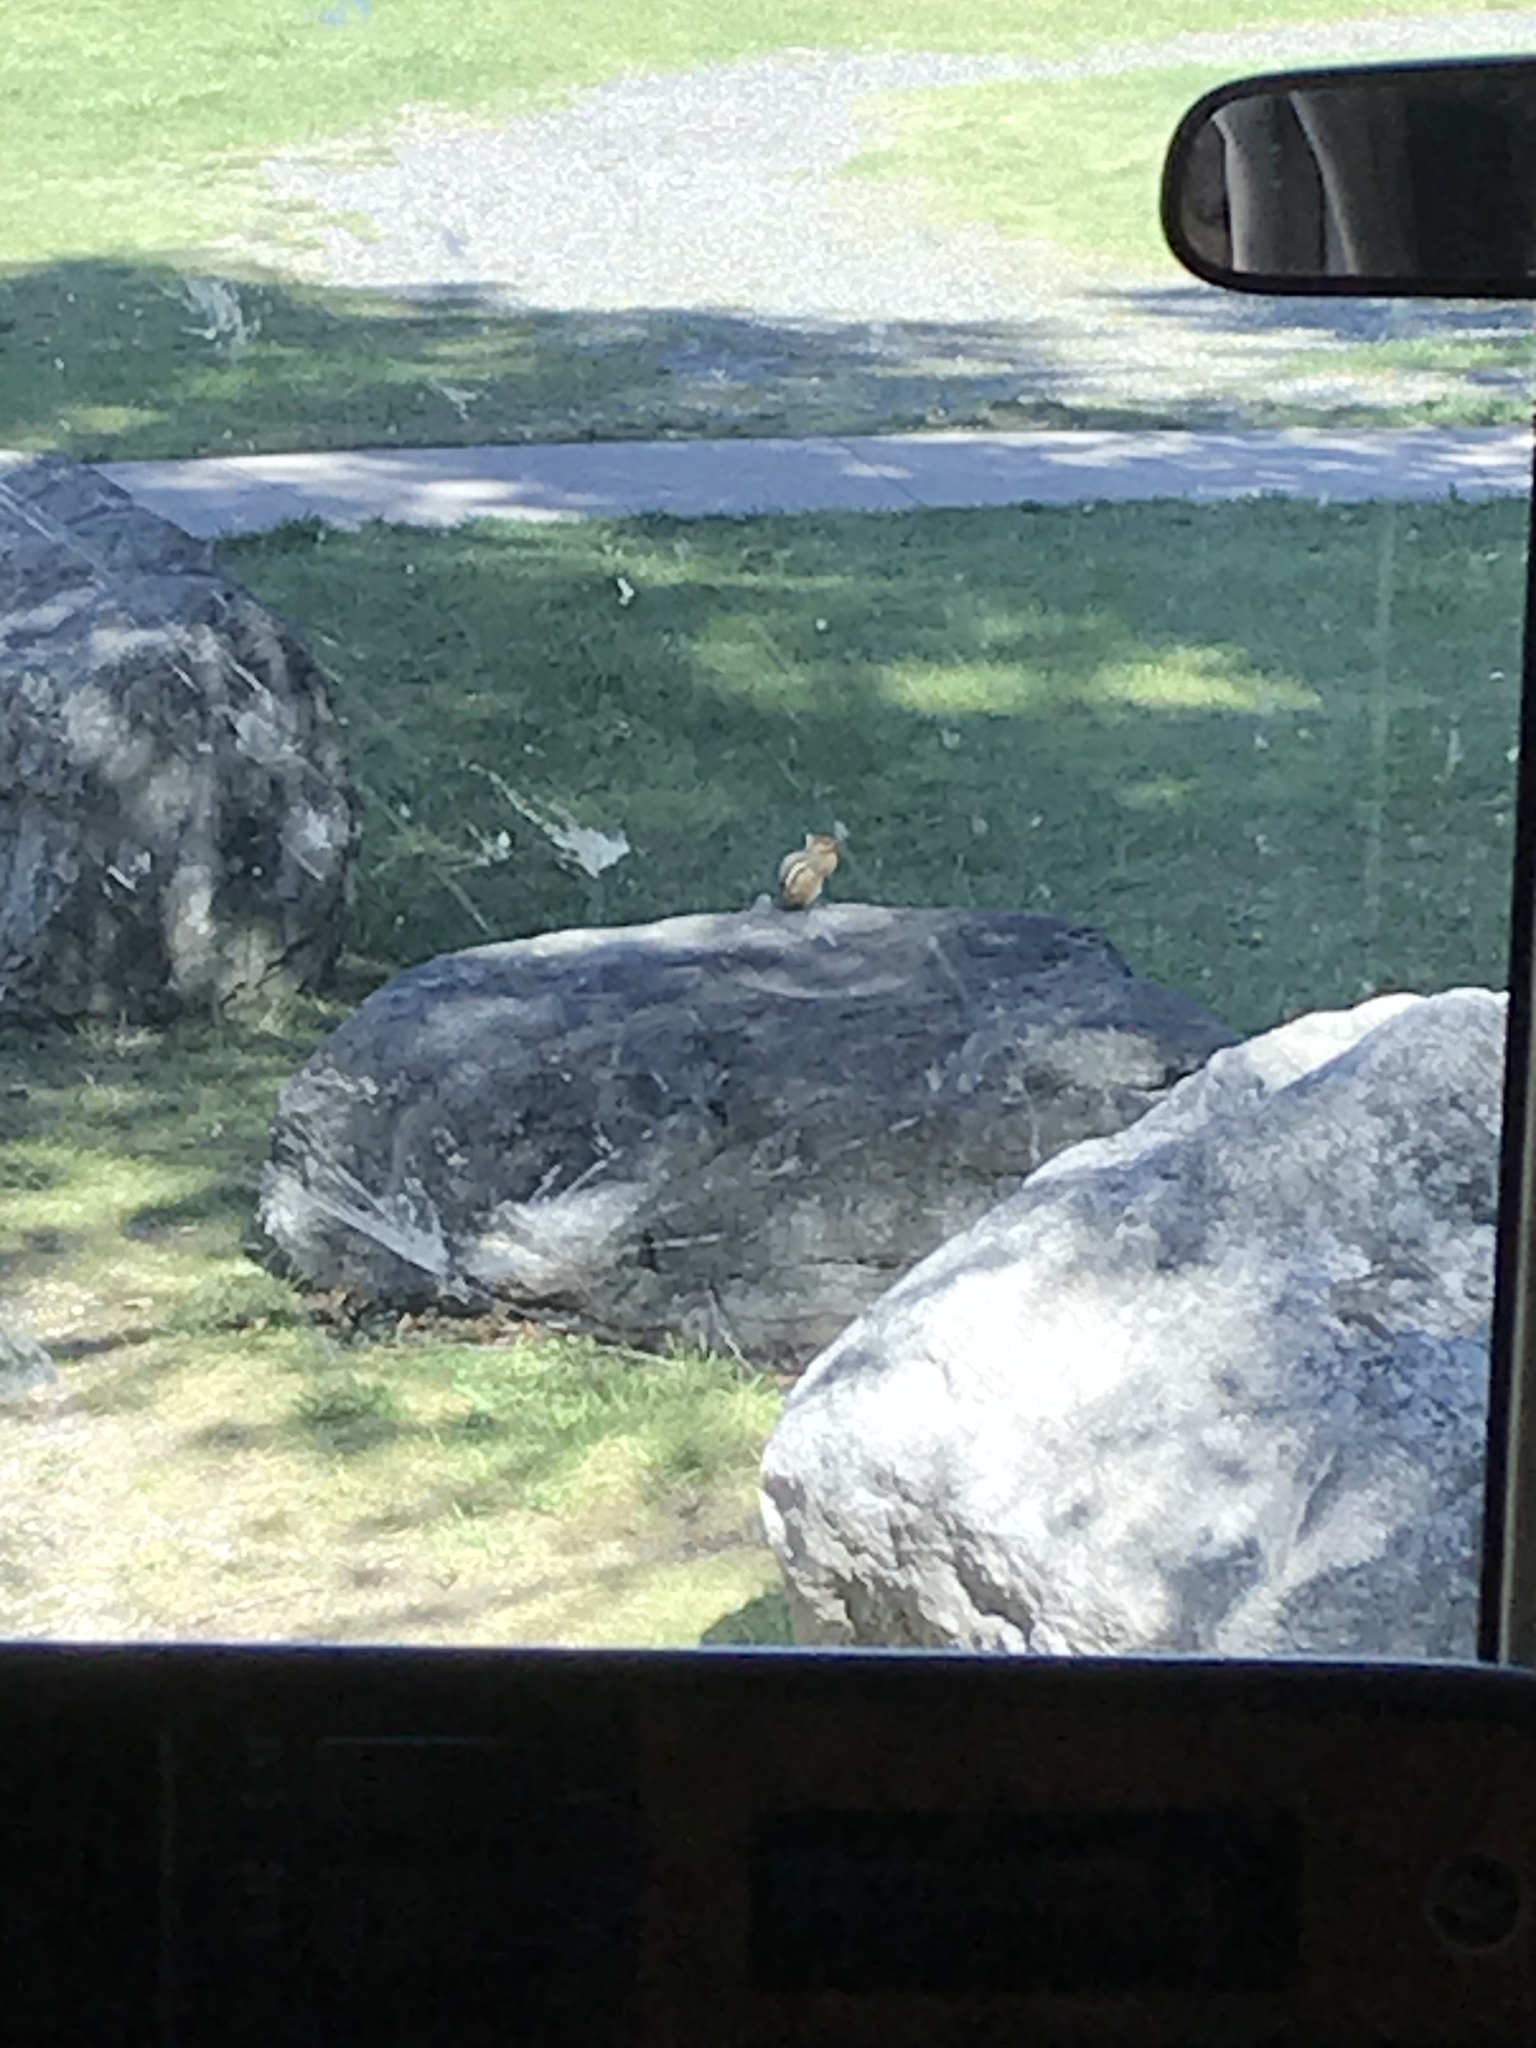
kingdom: Animalia
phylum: Chordata
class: Mammalia
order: Rodentia
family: Sciuridae
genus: Tamias
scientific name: Tamias striatus
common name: Eastern chipmunk
